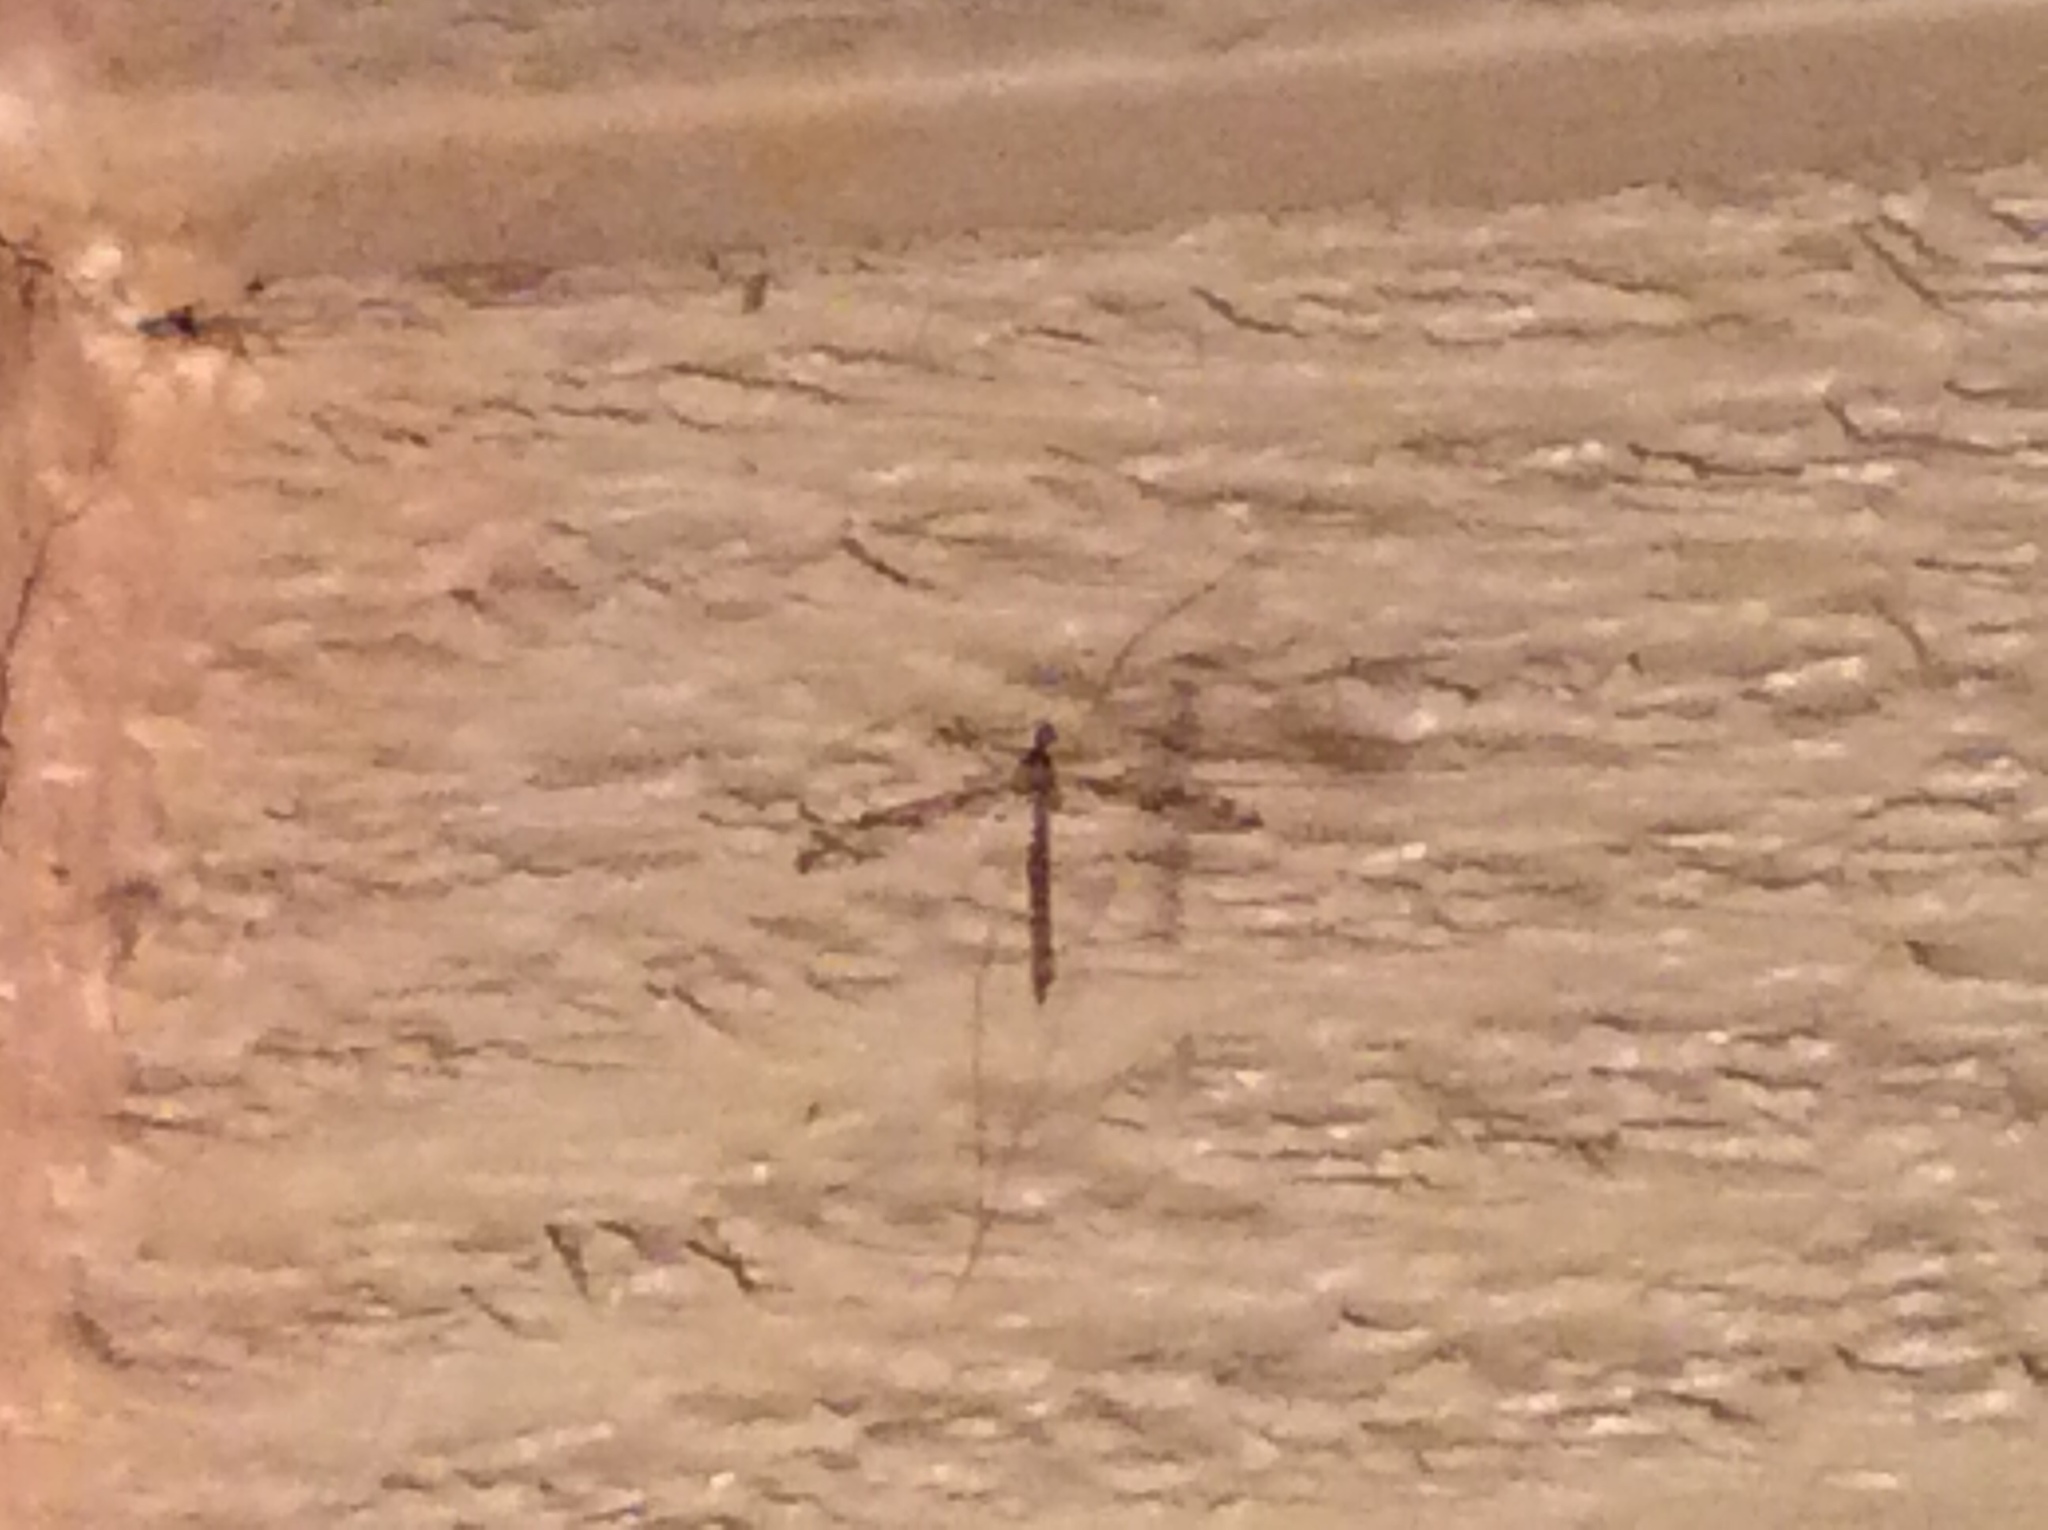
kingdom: Animalia
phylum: Arthropoda
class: Insecta
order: Diptera
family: Limoniidae
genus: Epiphragma
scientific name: Epiphragma solatrix
